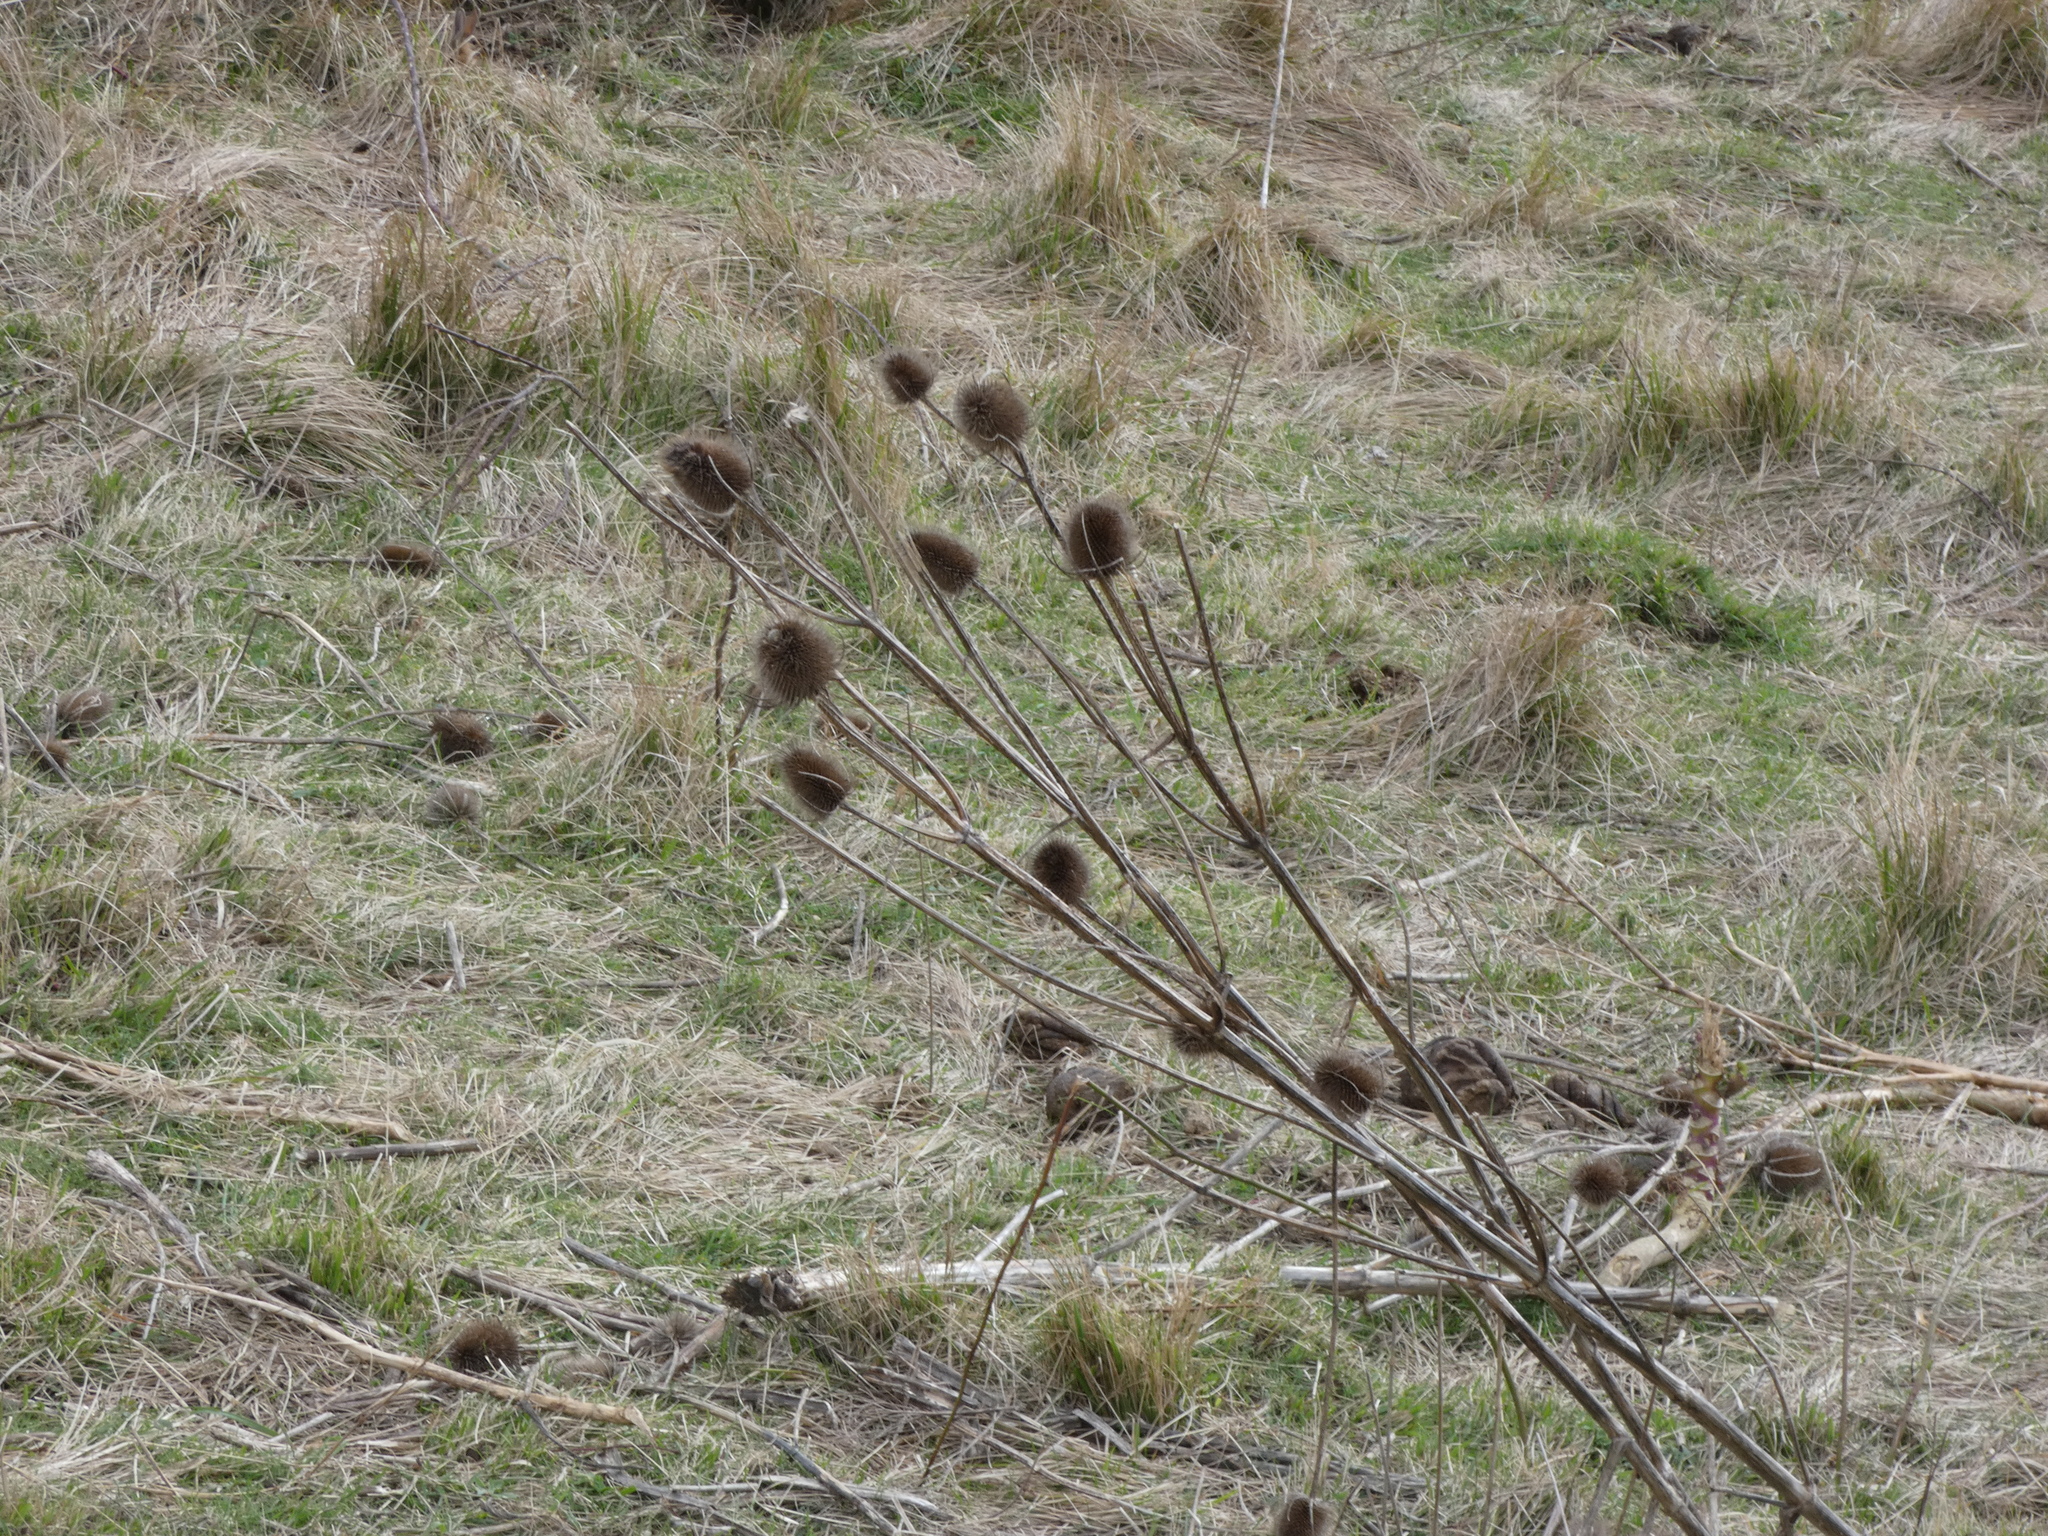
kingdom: Plantae
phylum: Tracheophyta
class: Magnoliopsida
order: Dipsacales
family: Caprifoliaceae
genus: Dipsacus
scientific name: Dipsacus fullonum
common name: Teasel
